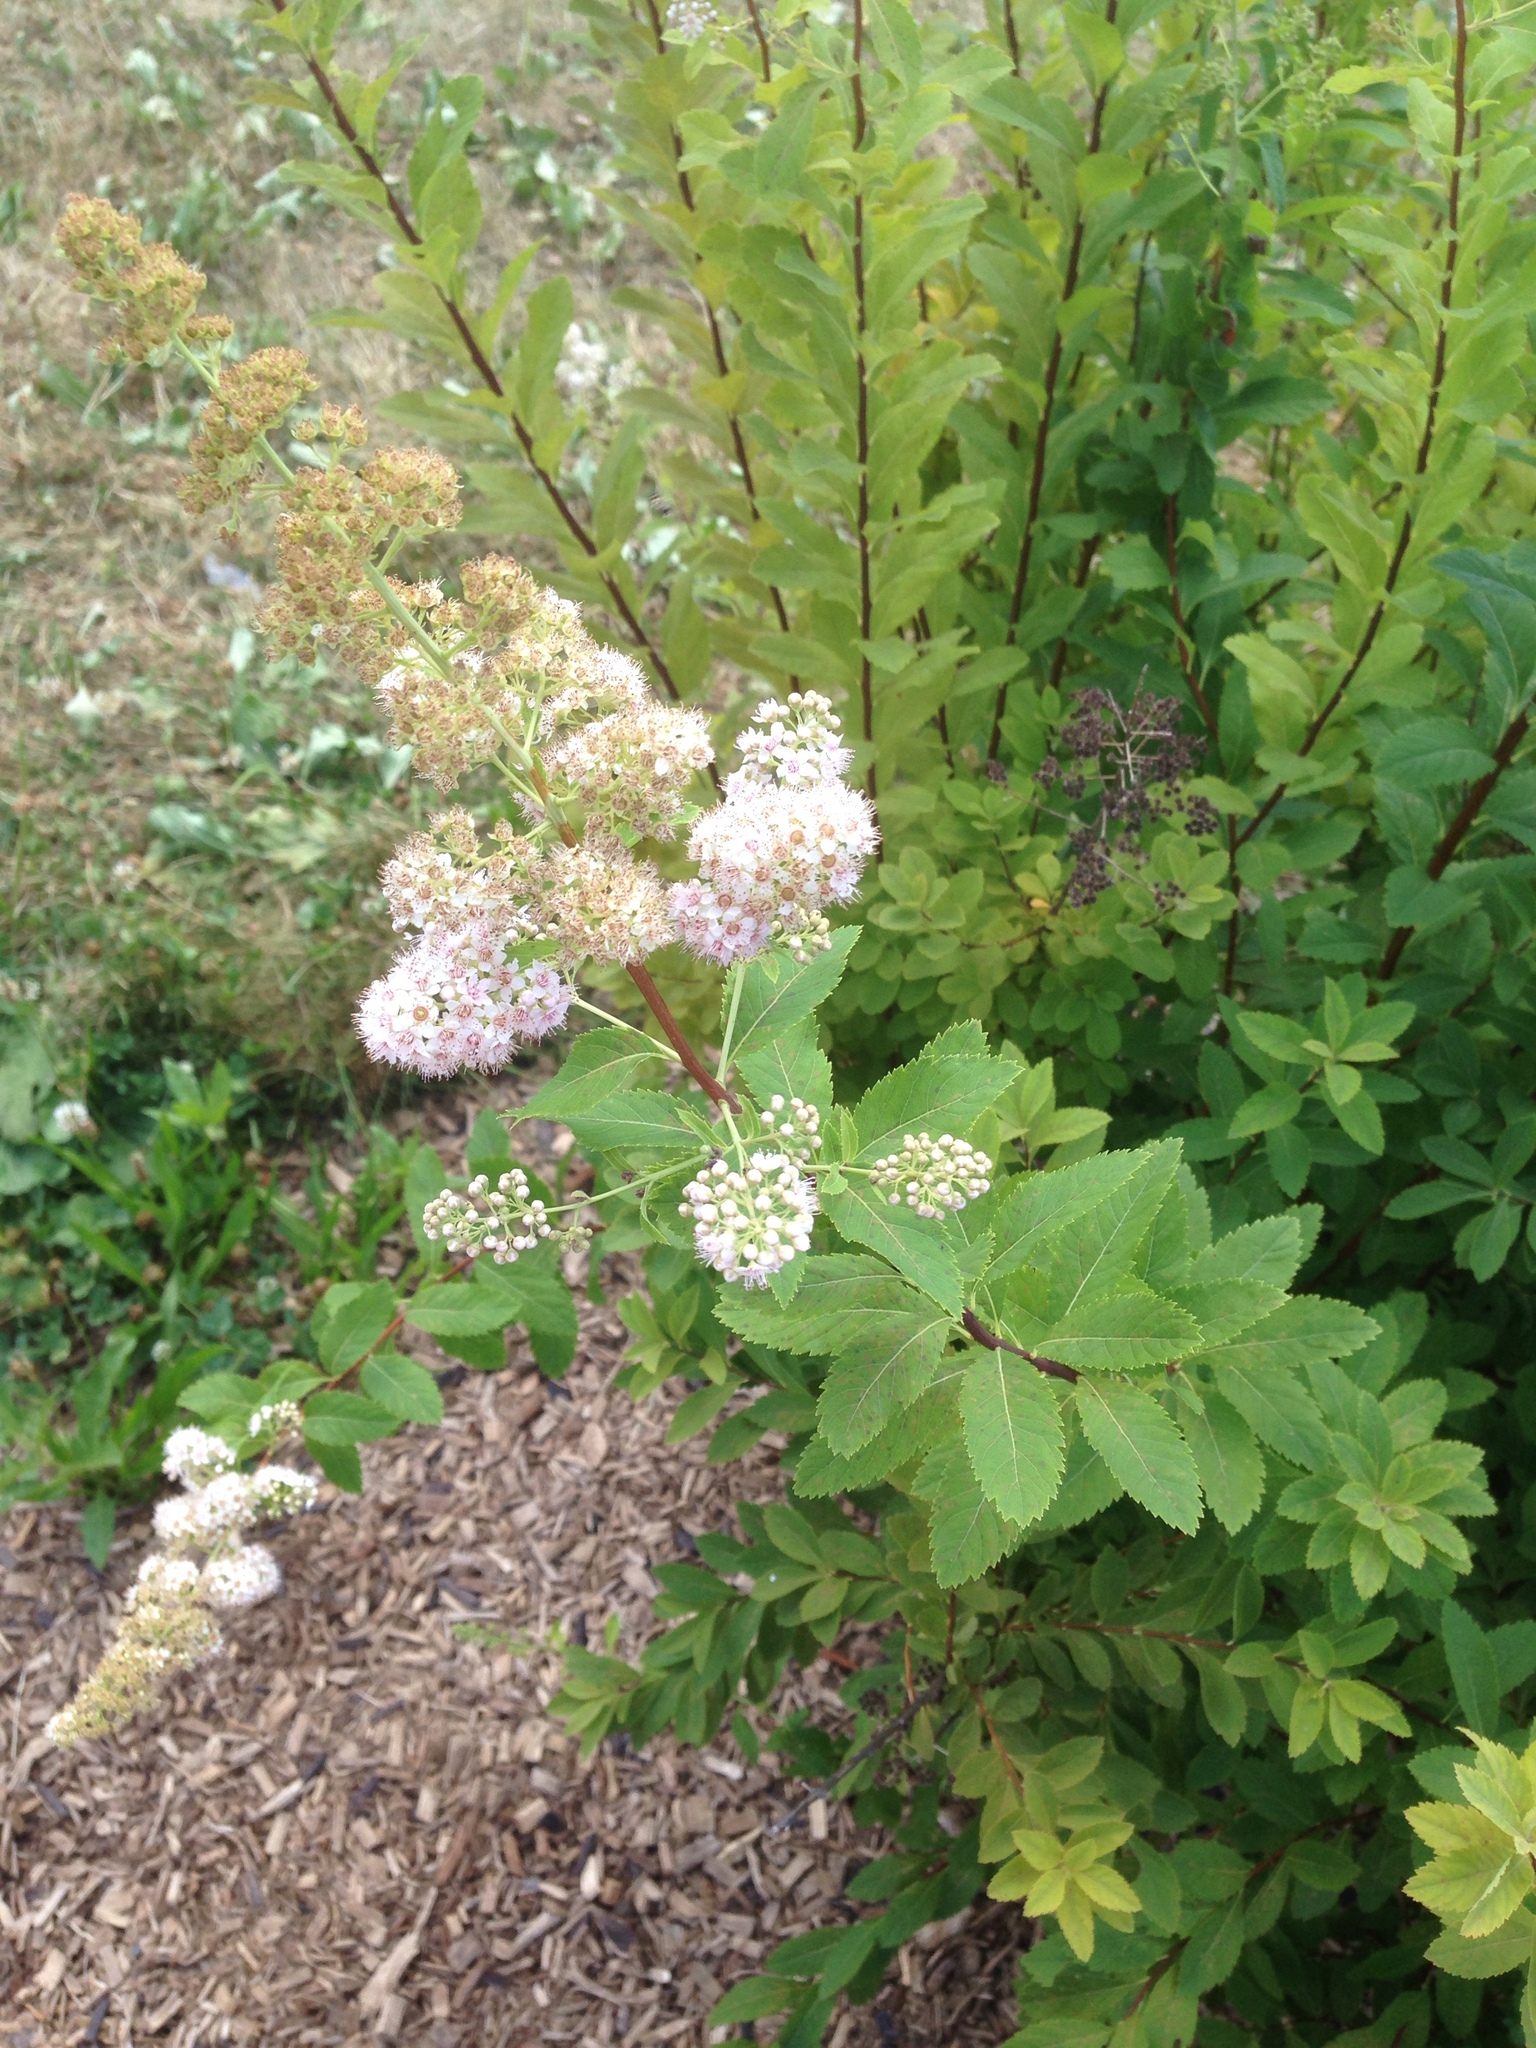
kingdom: Plantae
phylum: Tracheophyta
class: Magnoliopsida
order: Rosales
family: Rosaceae
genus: Spiraea
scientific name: Spiraea alba
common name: Pale bridewort
